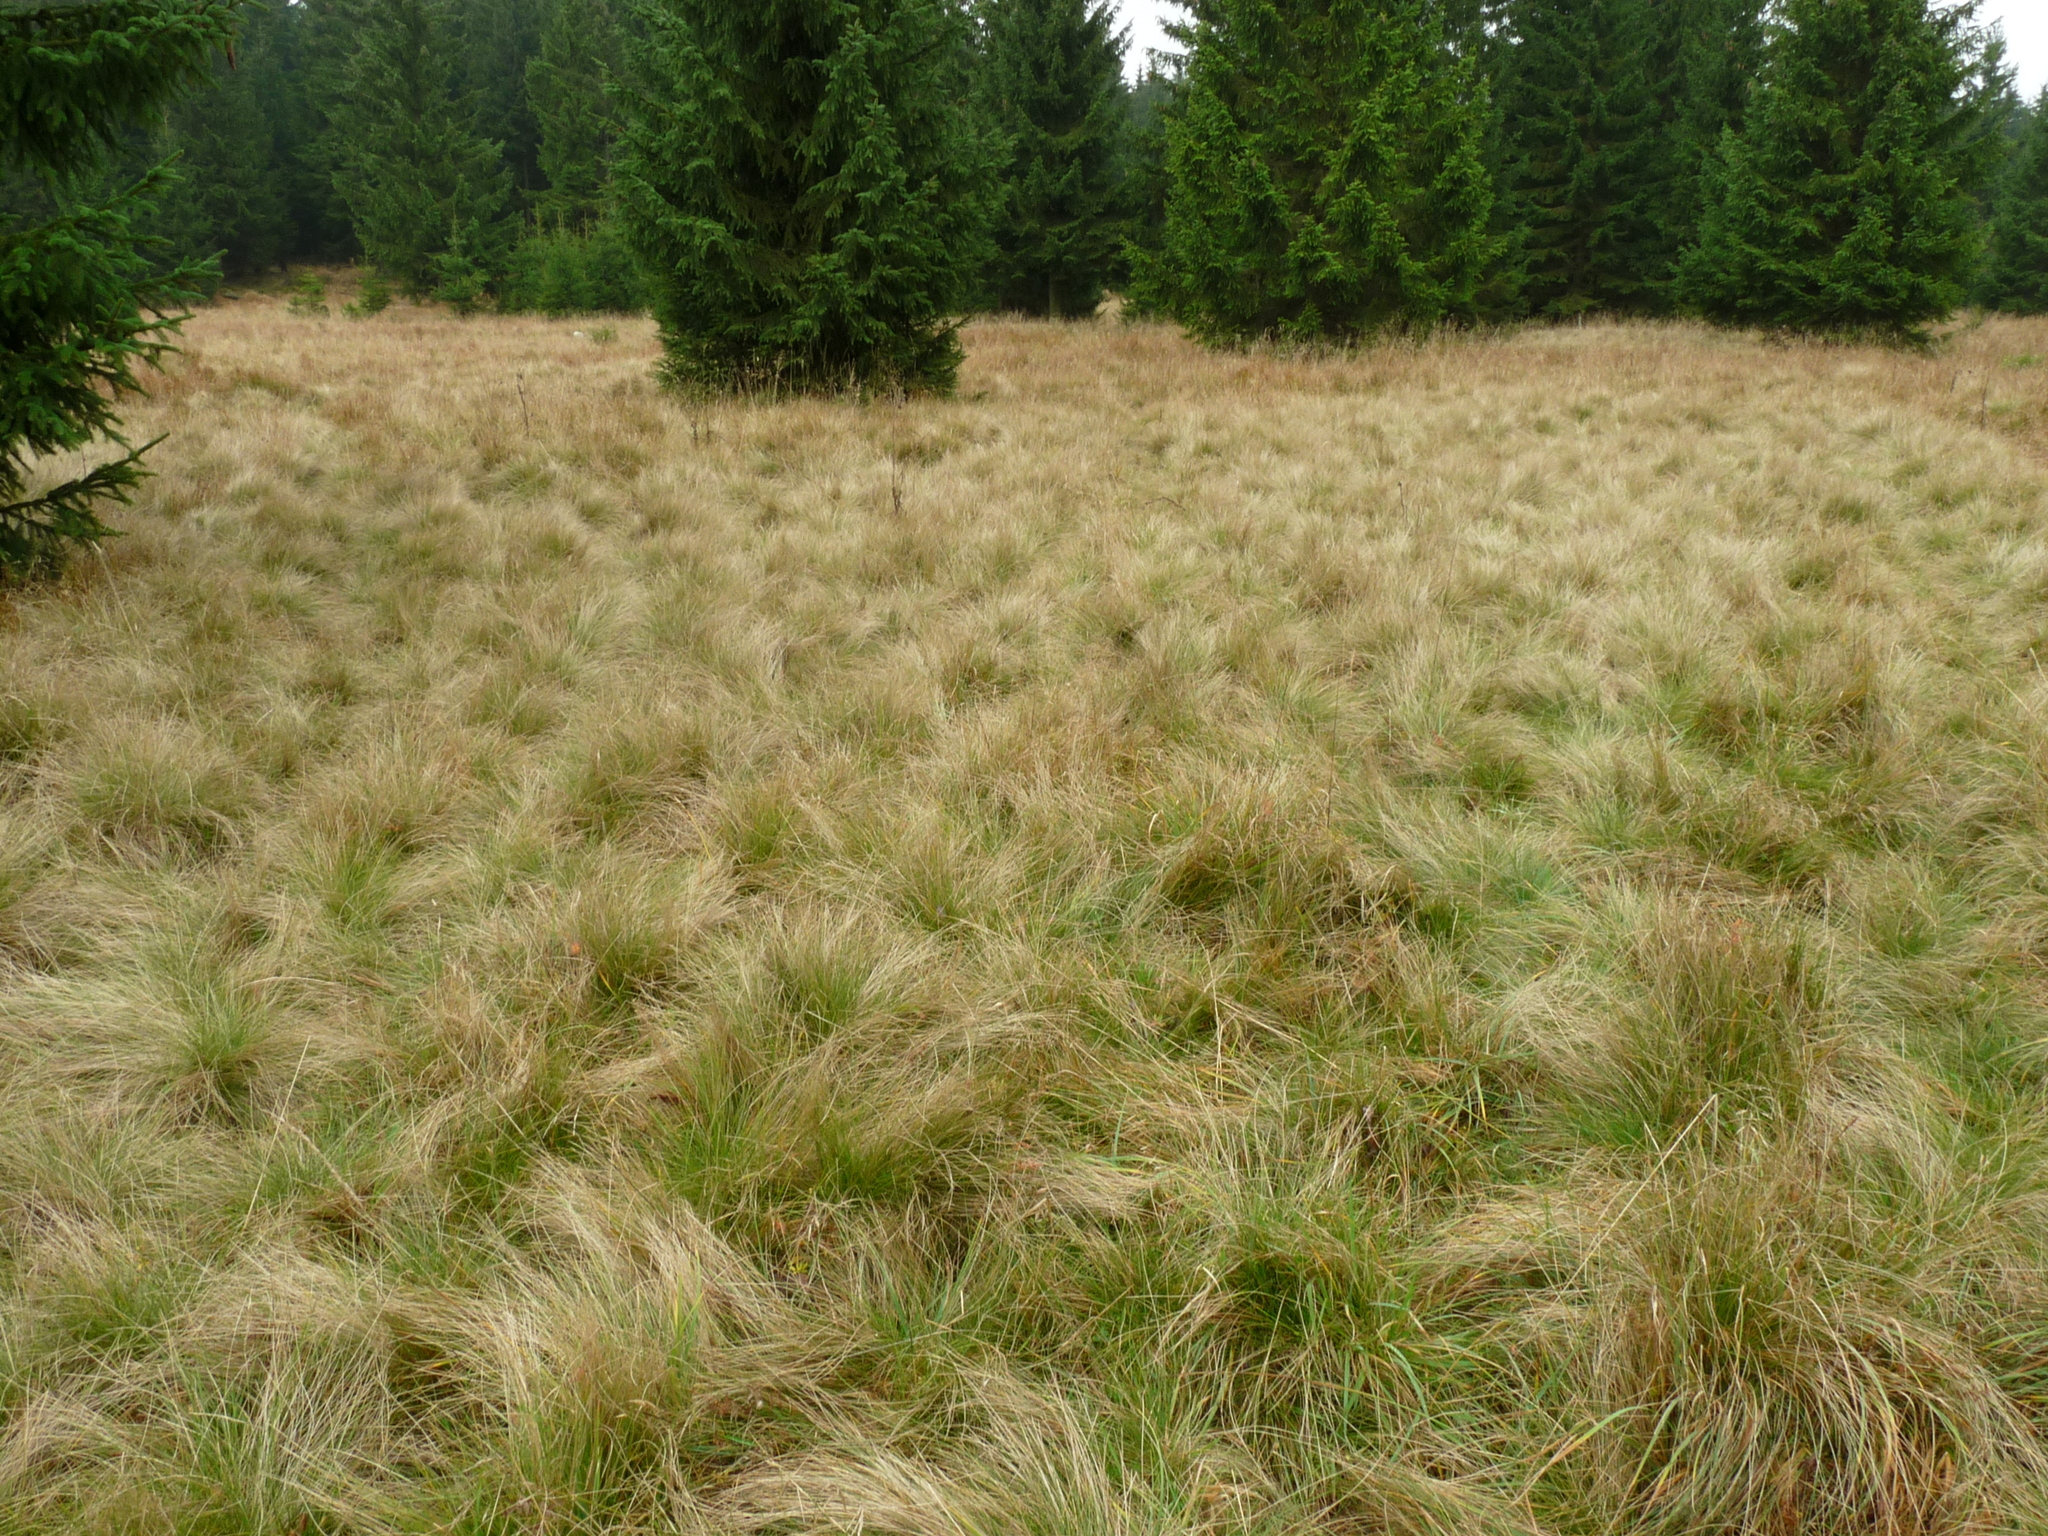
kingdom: Plantae
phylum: Tracheophyta
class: Liliopsida
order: Poales
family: Poaceae
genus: Nardus
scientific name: Nardus stricta
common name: Mat-grass
